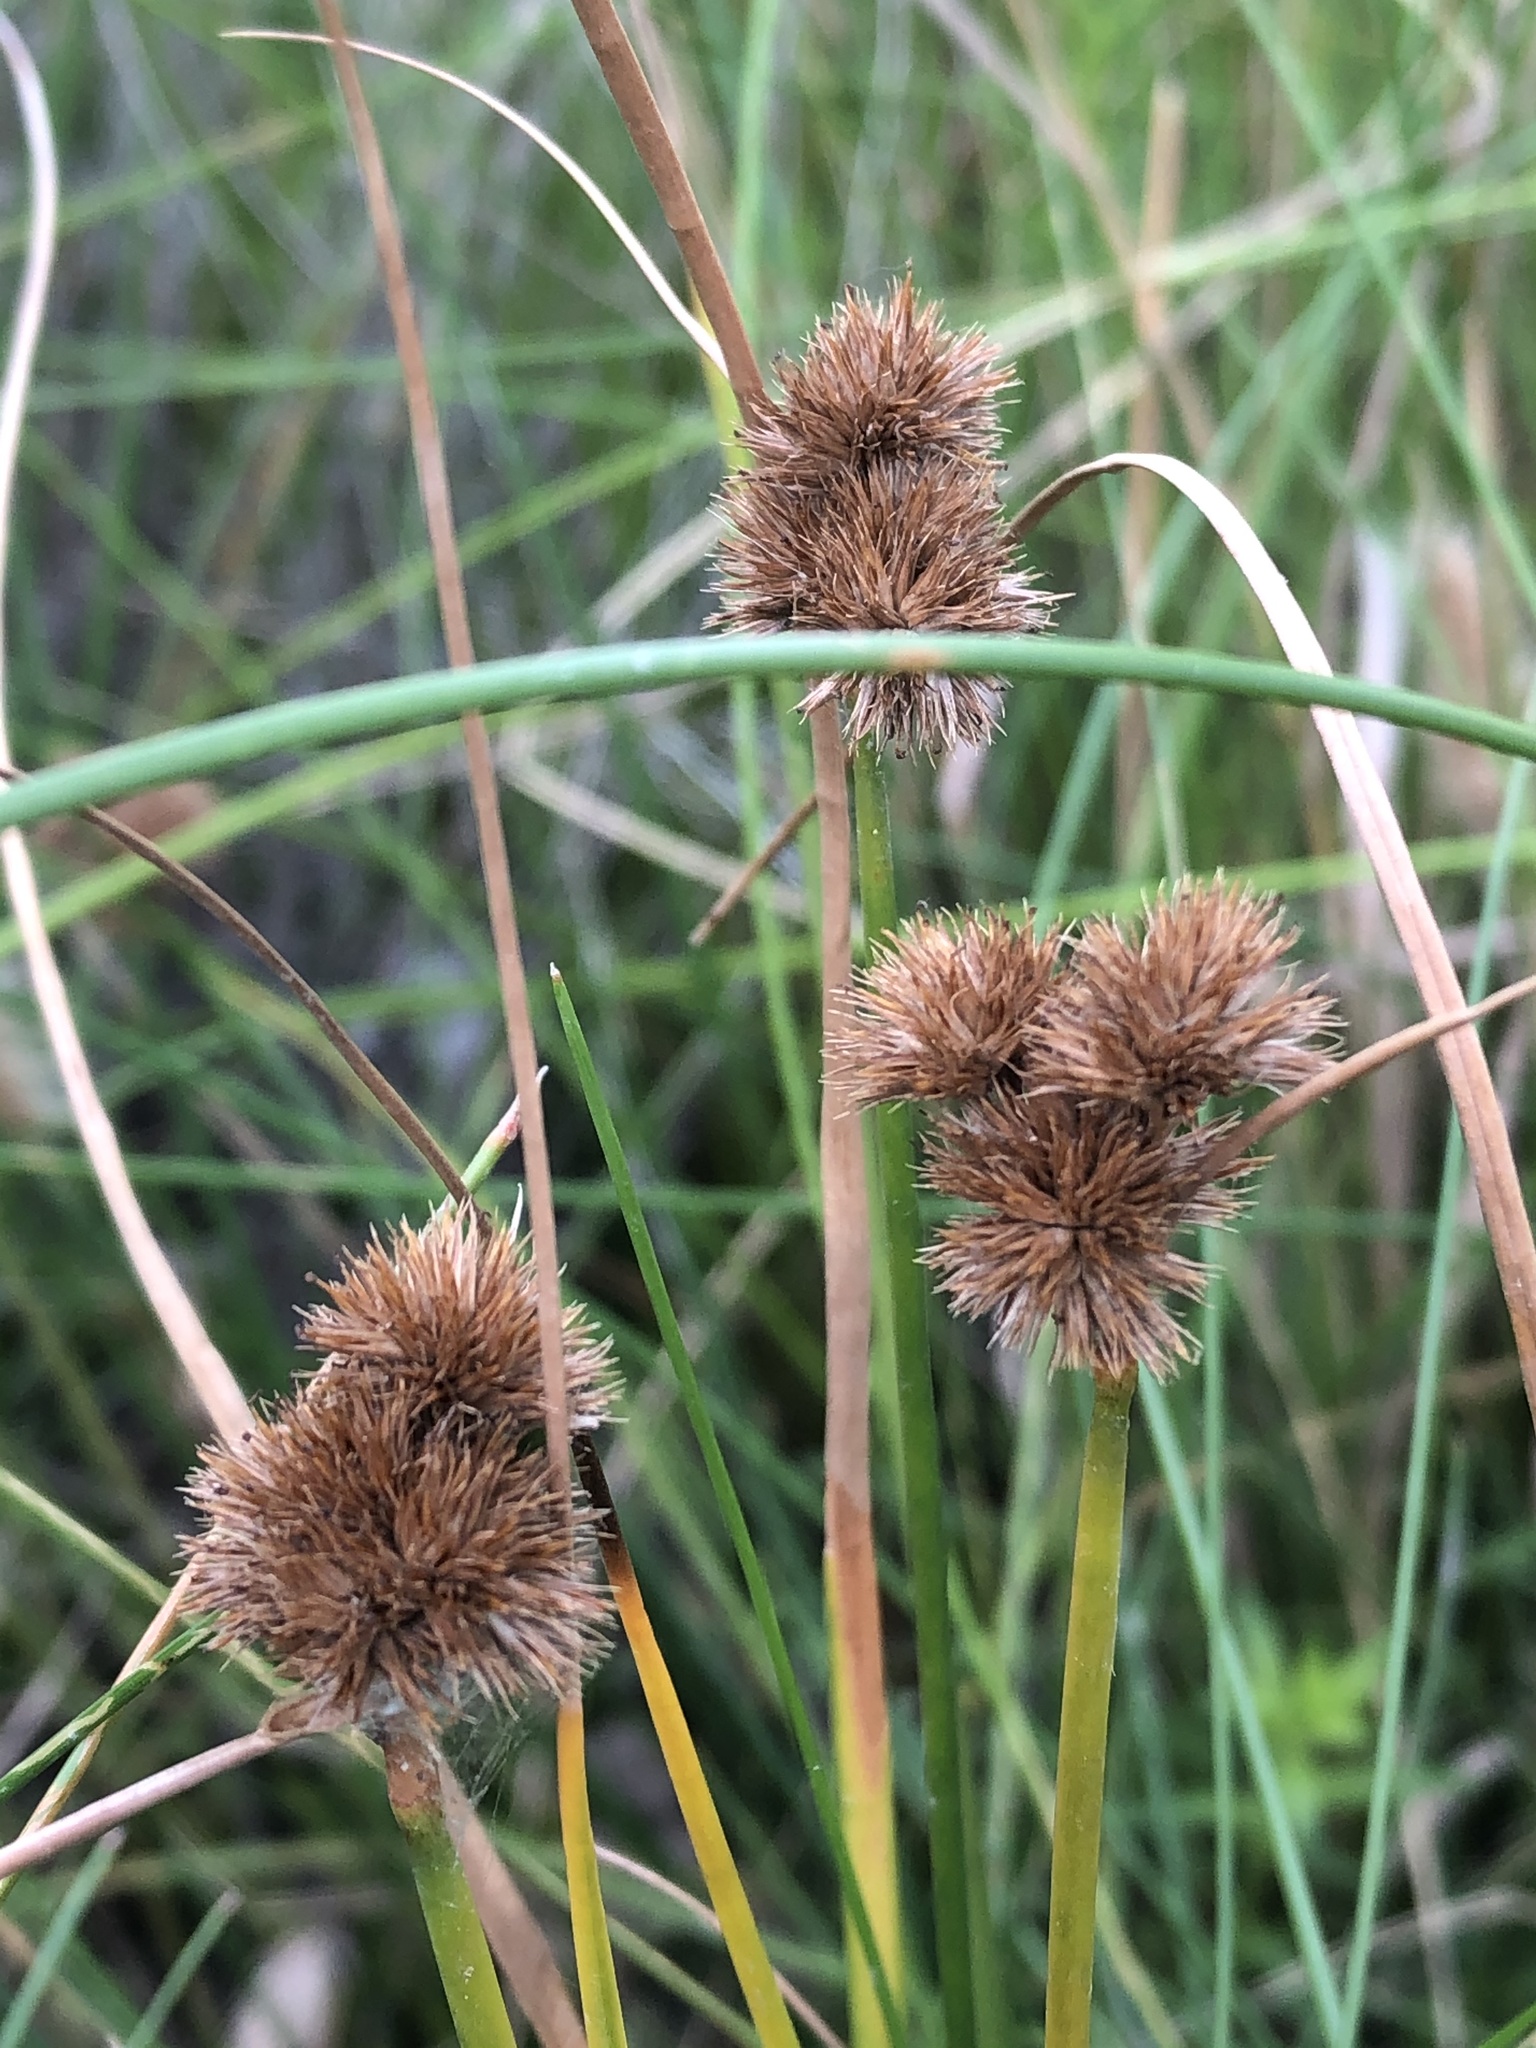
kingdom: Plantae
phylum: Tracheophyta
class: Liliopsida
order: Poales
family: Juncaceae
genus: Juncus
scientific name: Juncus torreyi
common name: Torrey's rush
